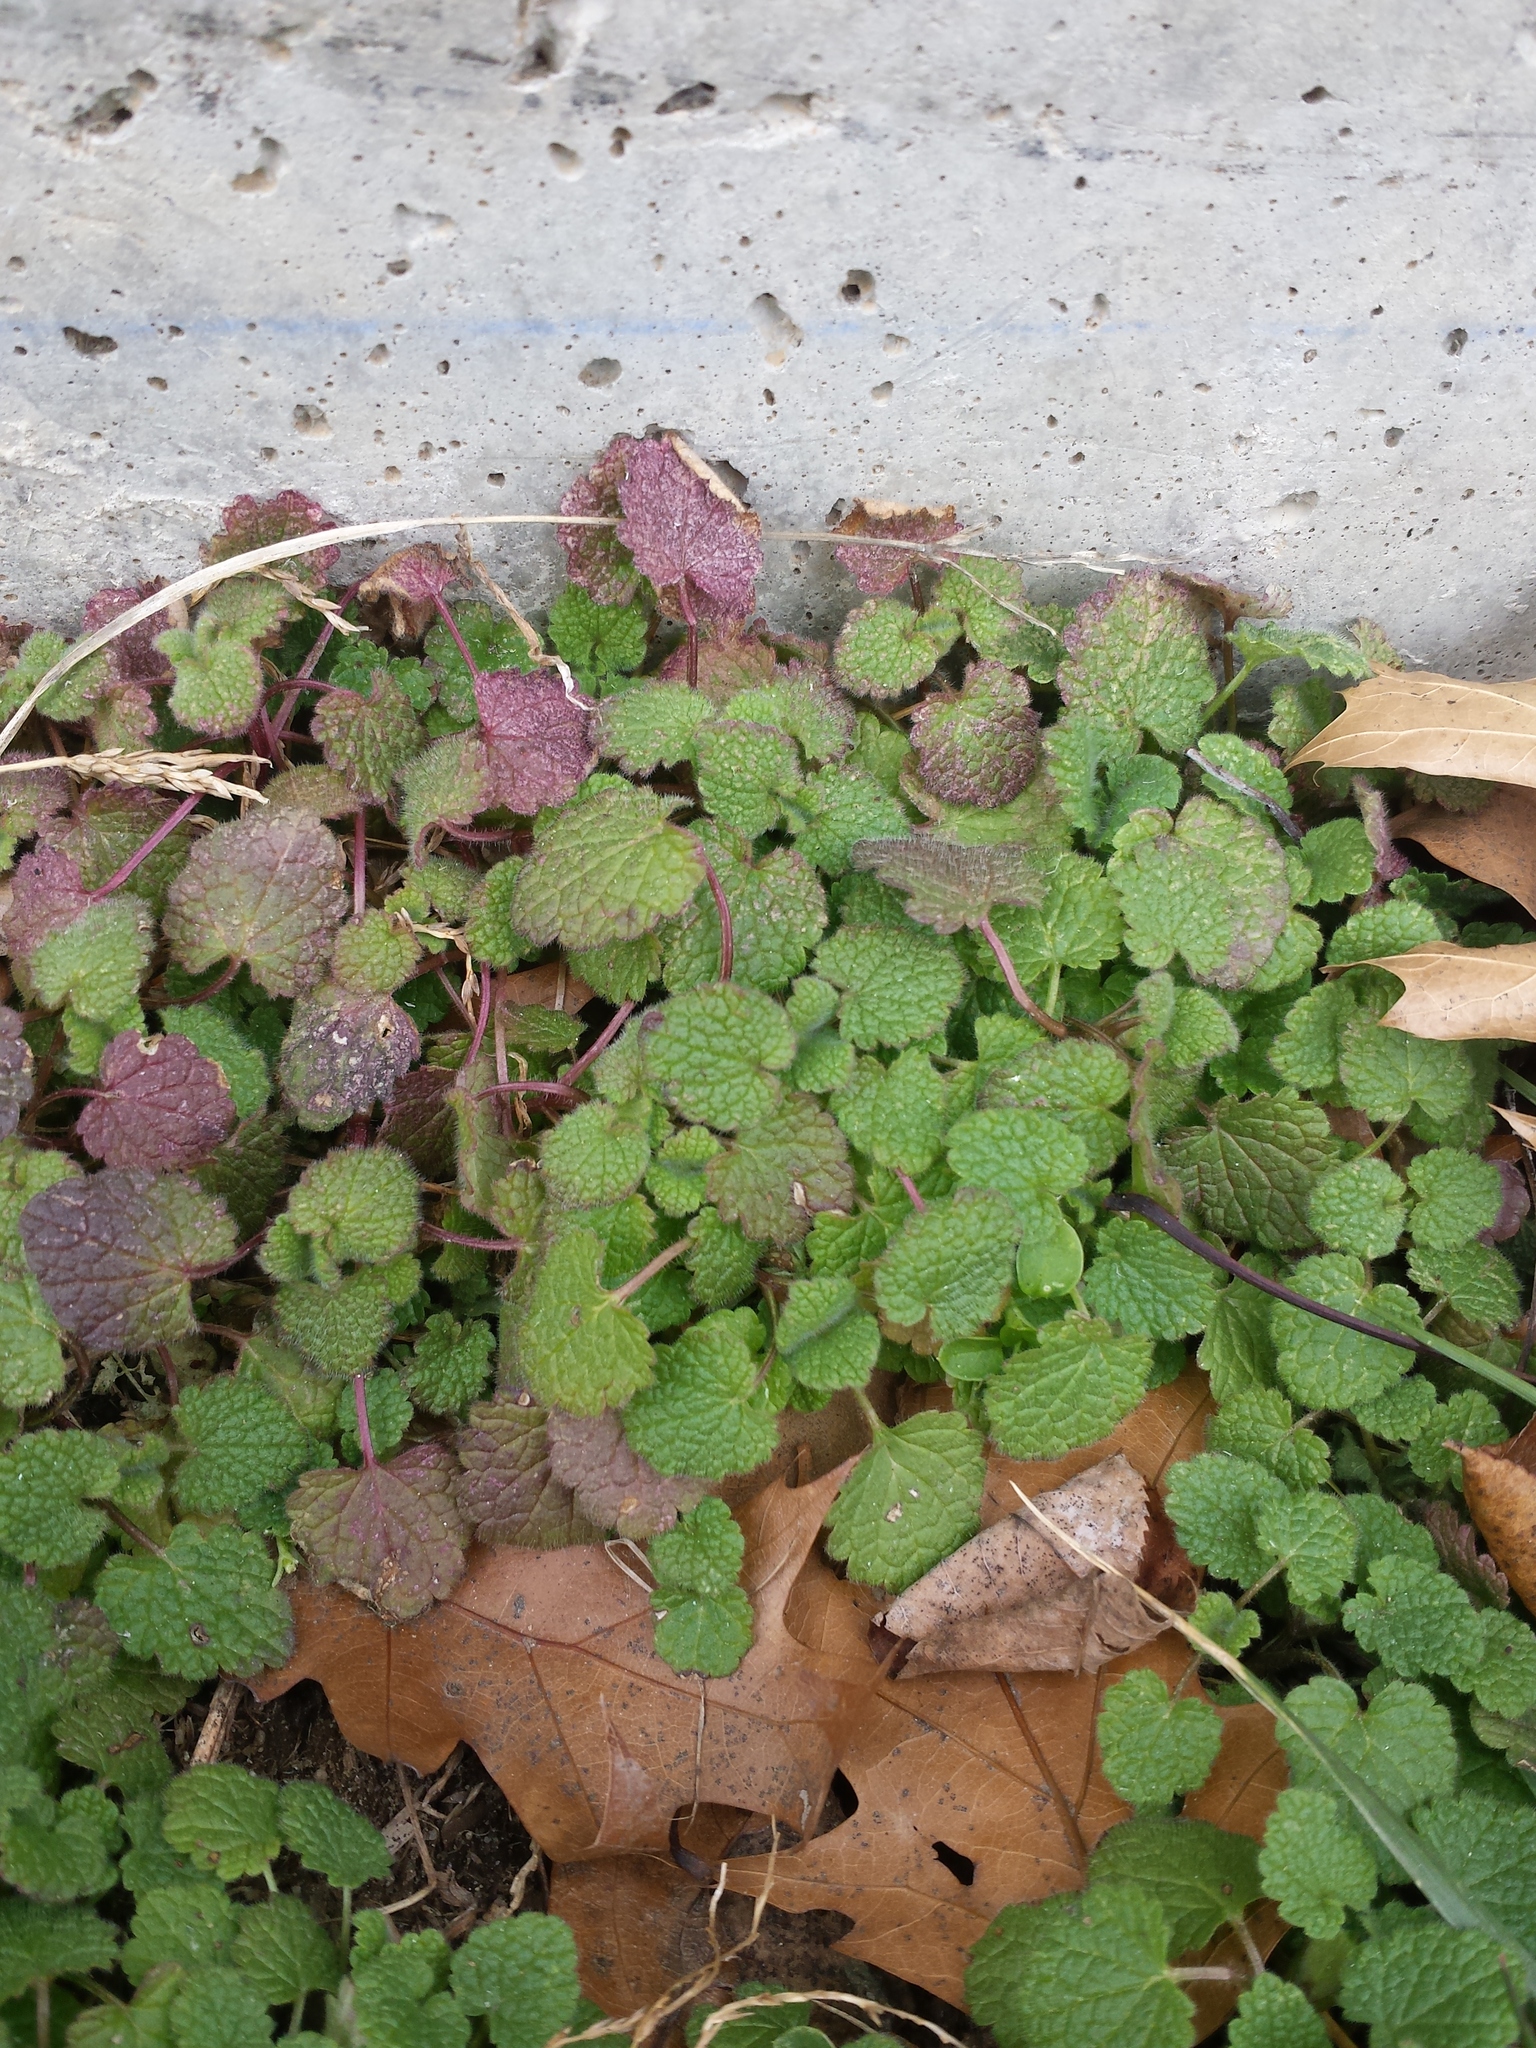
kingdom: Plantae
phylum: Tracheophyta
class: Magnoliopsida
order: Lamiales
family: Lamiaceae
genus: Lamium
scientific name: Lamium purpureum
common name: Red dead-nettle
